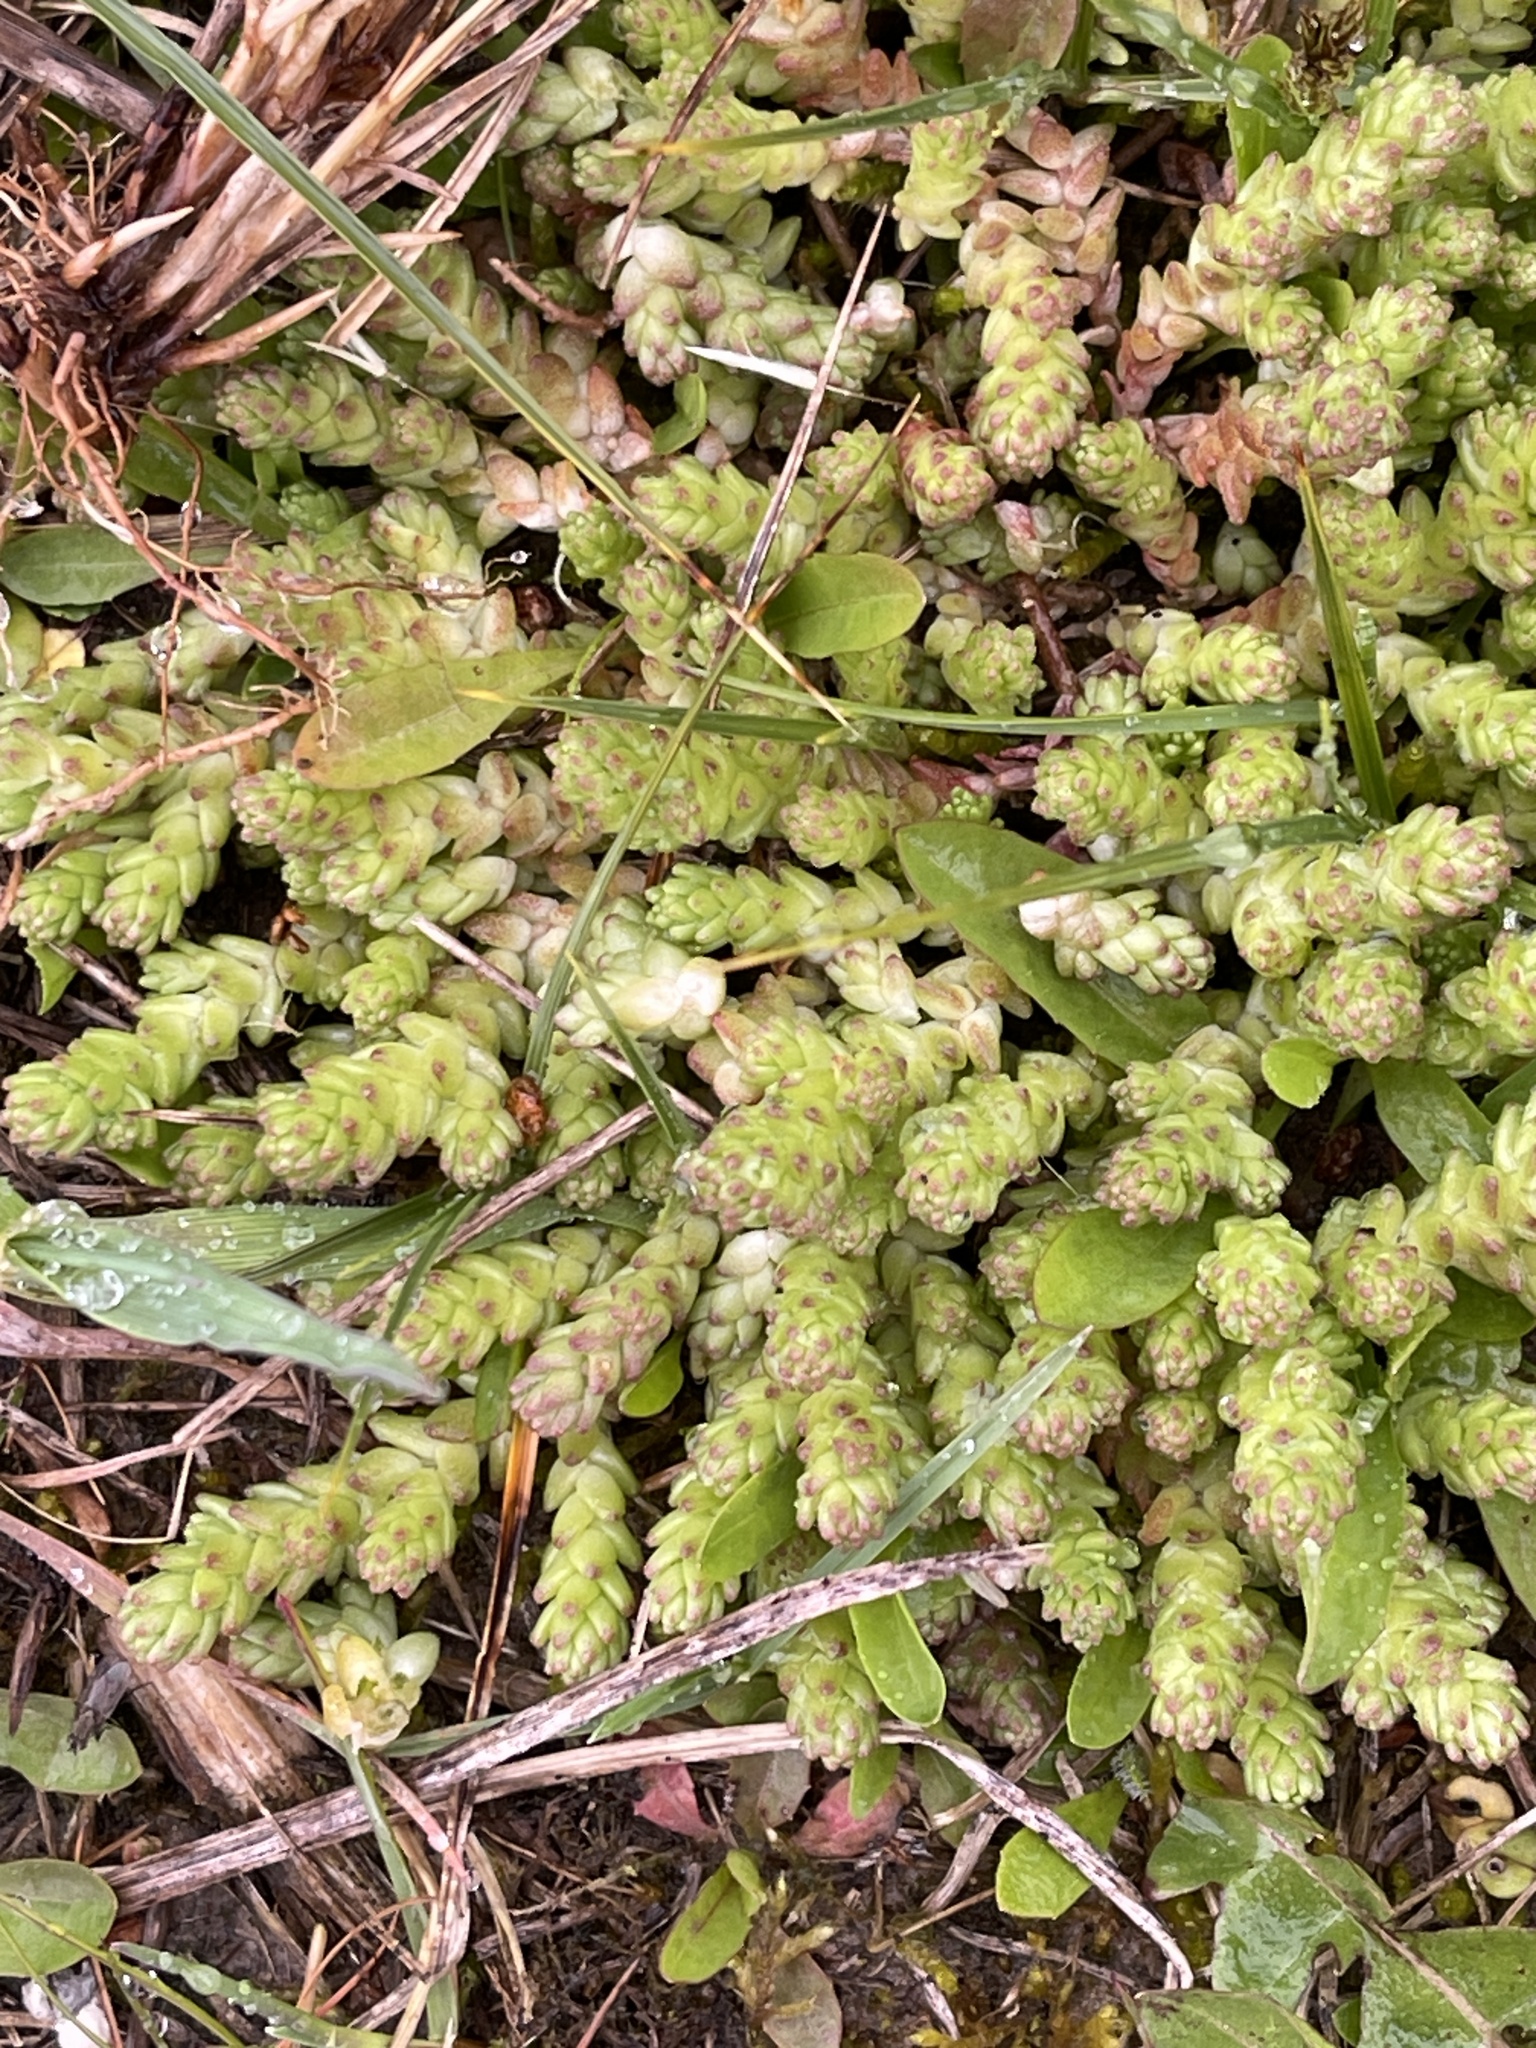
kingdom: Plantae
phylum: Tracheophyta
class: Magnoliopsida
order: Saxifragales
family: Crassulaceae
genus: Sedum
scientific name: Sedum acre
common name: Biting stonecrop
